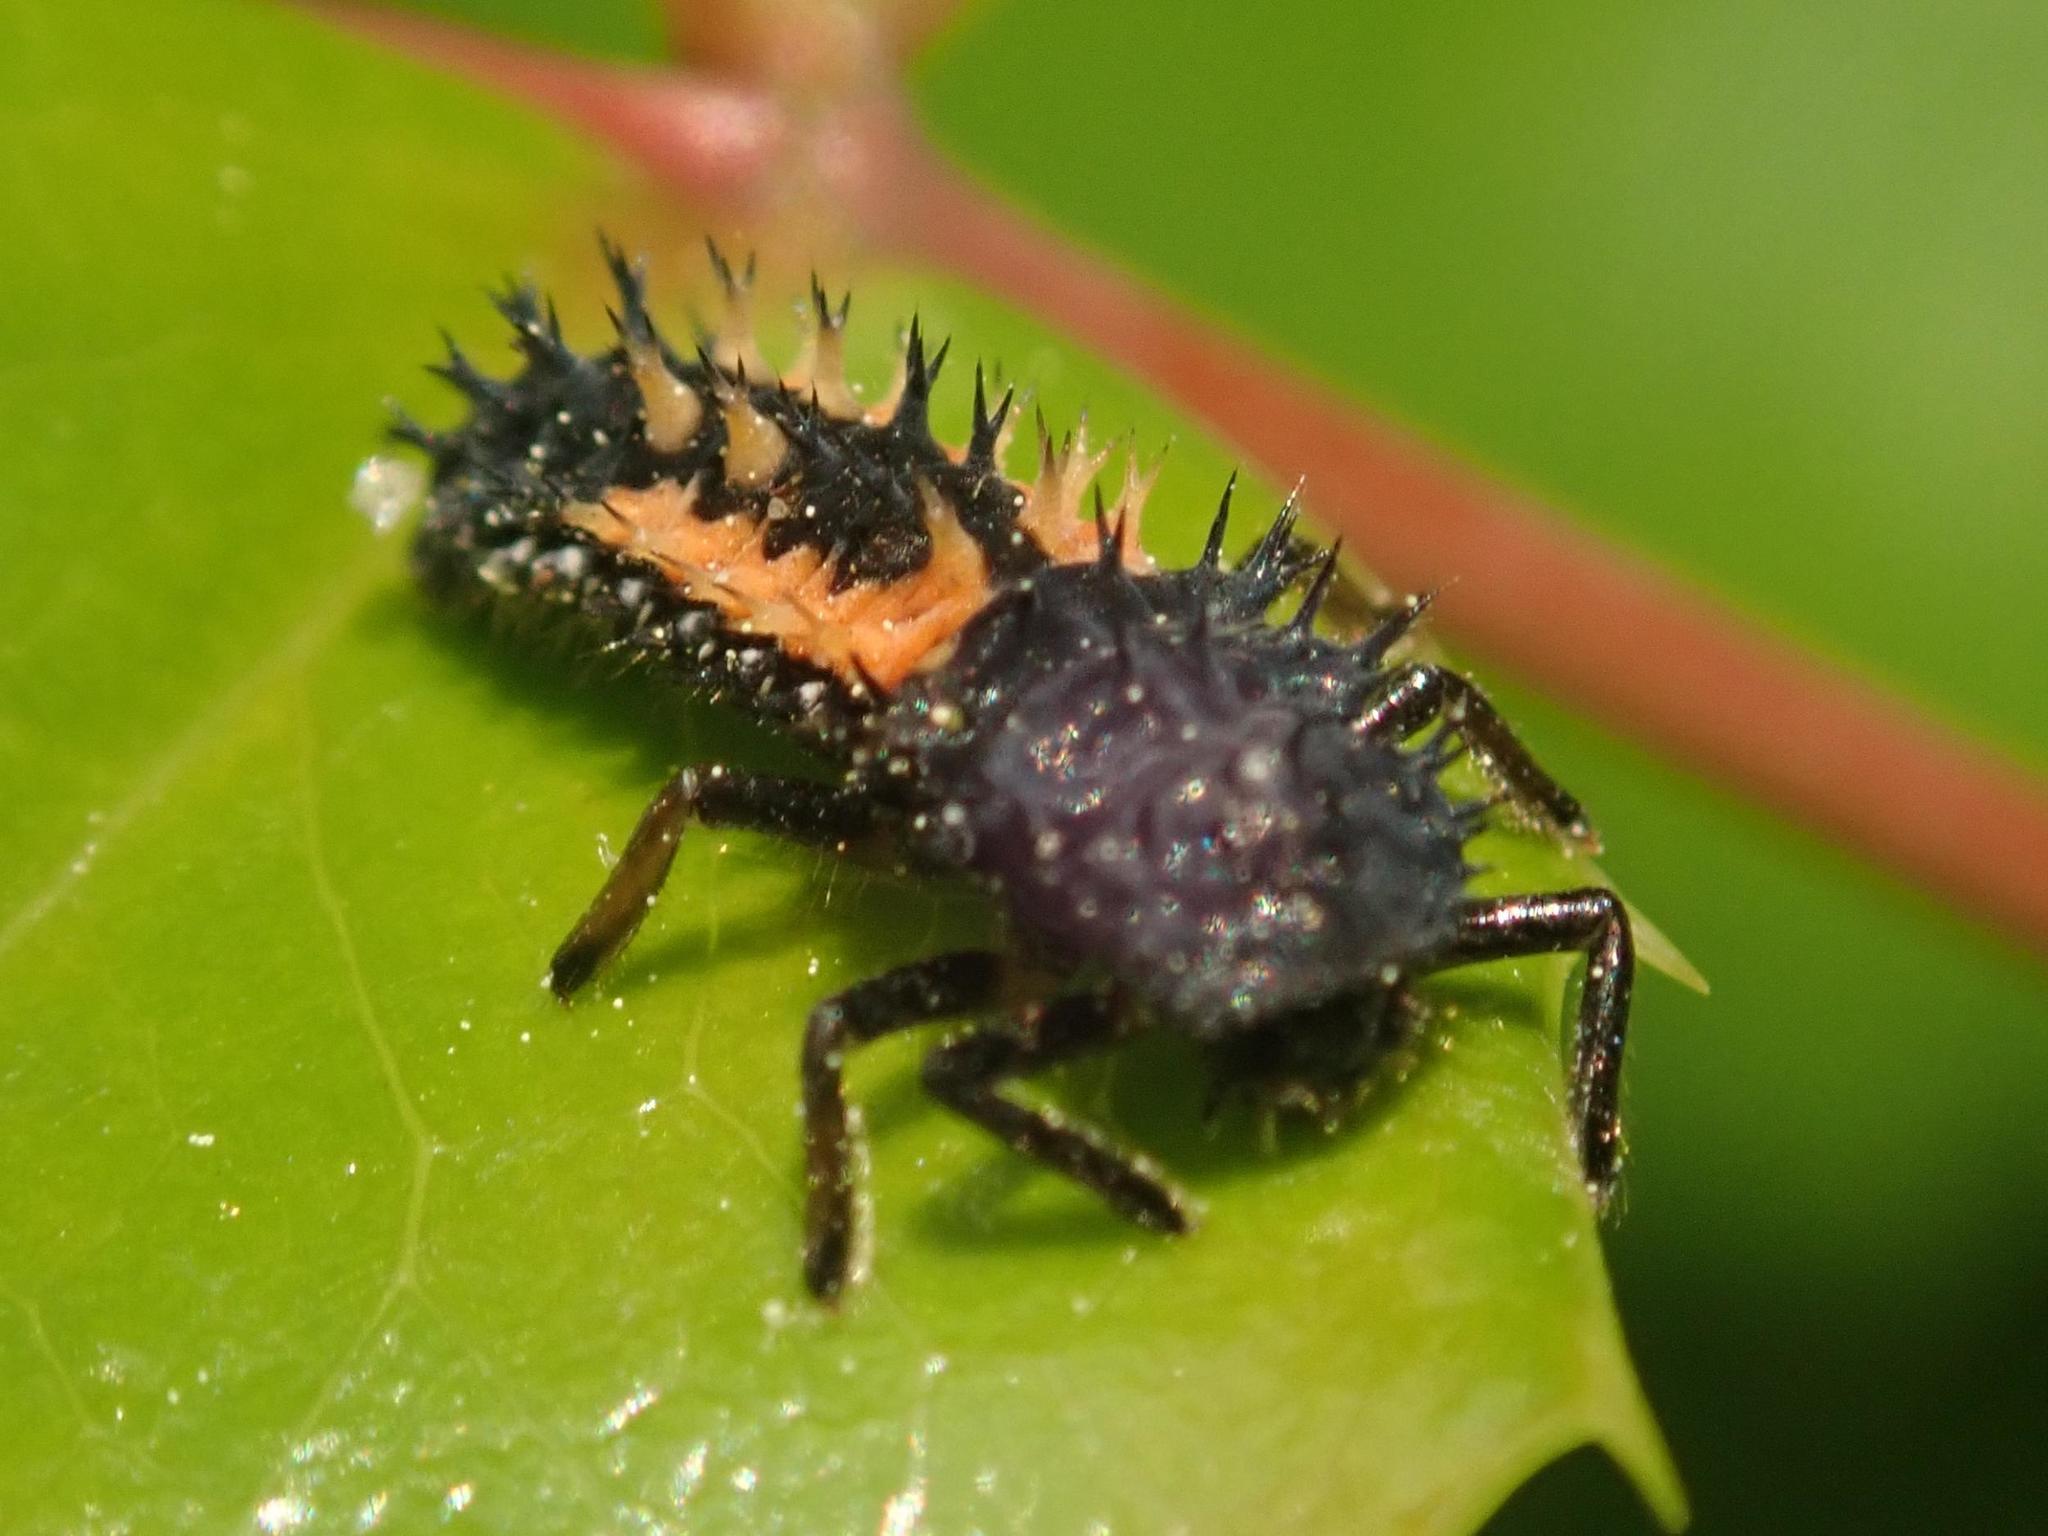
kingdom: Animalia
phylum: Arthropoda
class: Insecta
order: Coleoptera
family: Coccinellidae
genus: Harmonia
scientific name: Harmonia axyridis
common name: Harlequin ladybird
